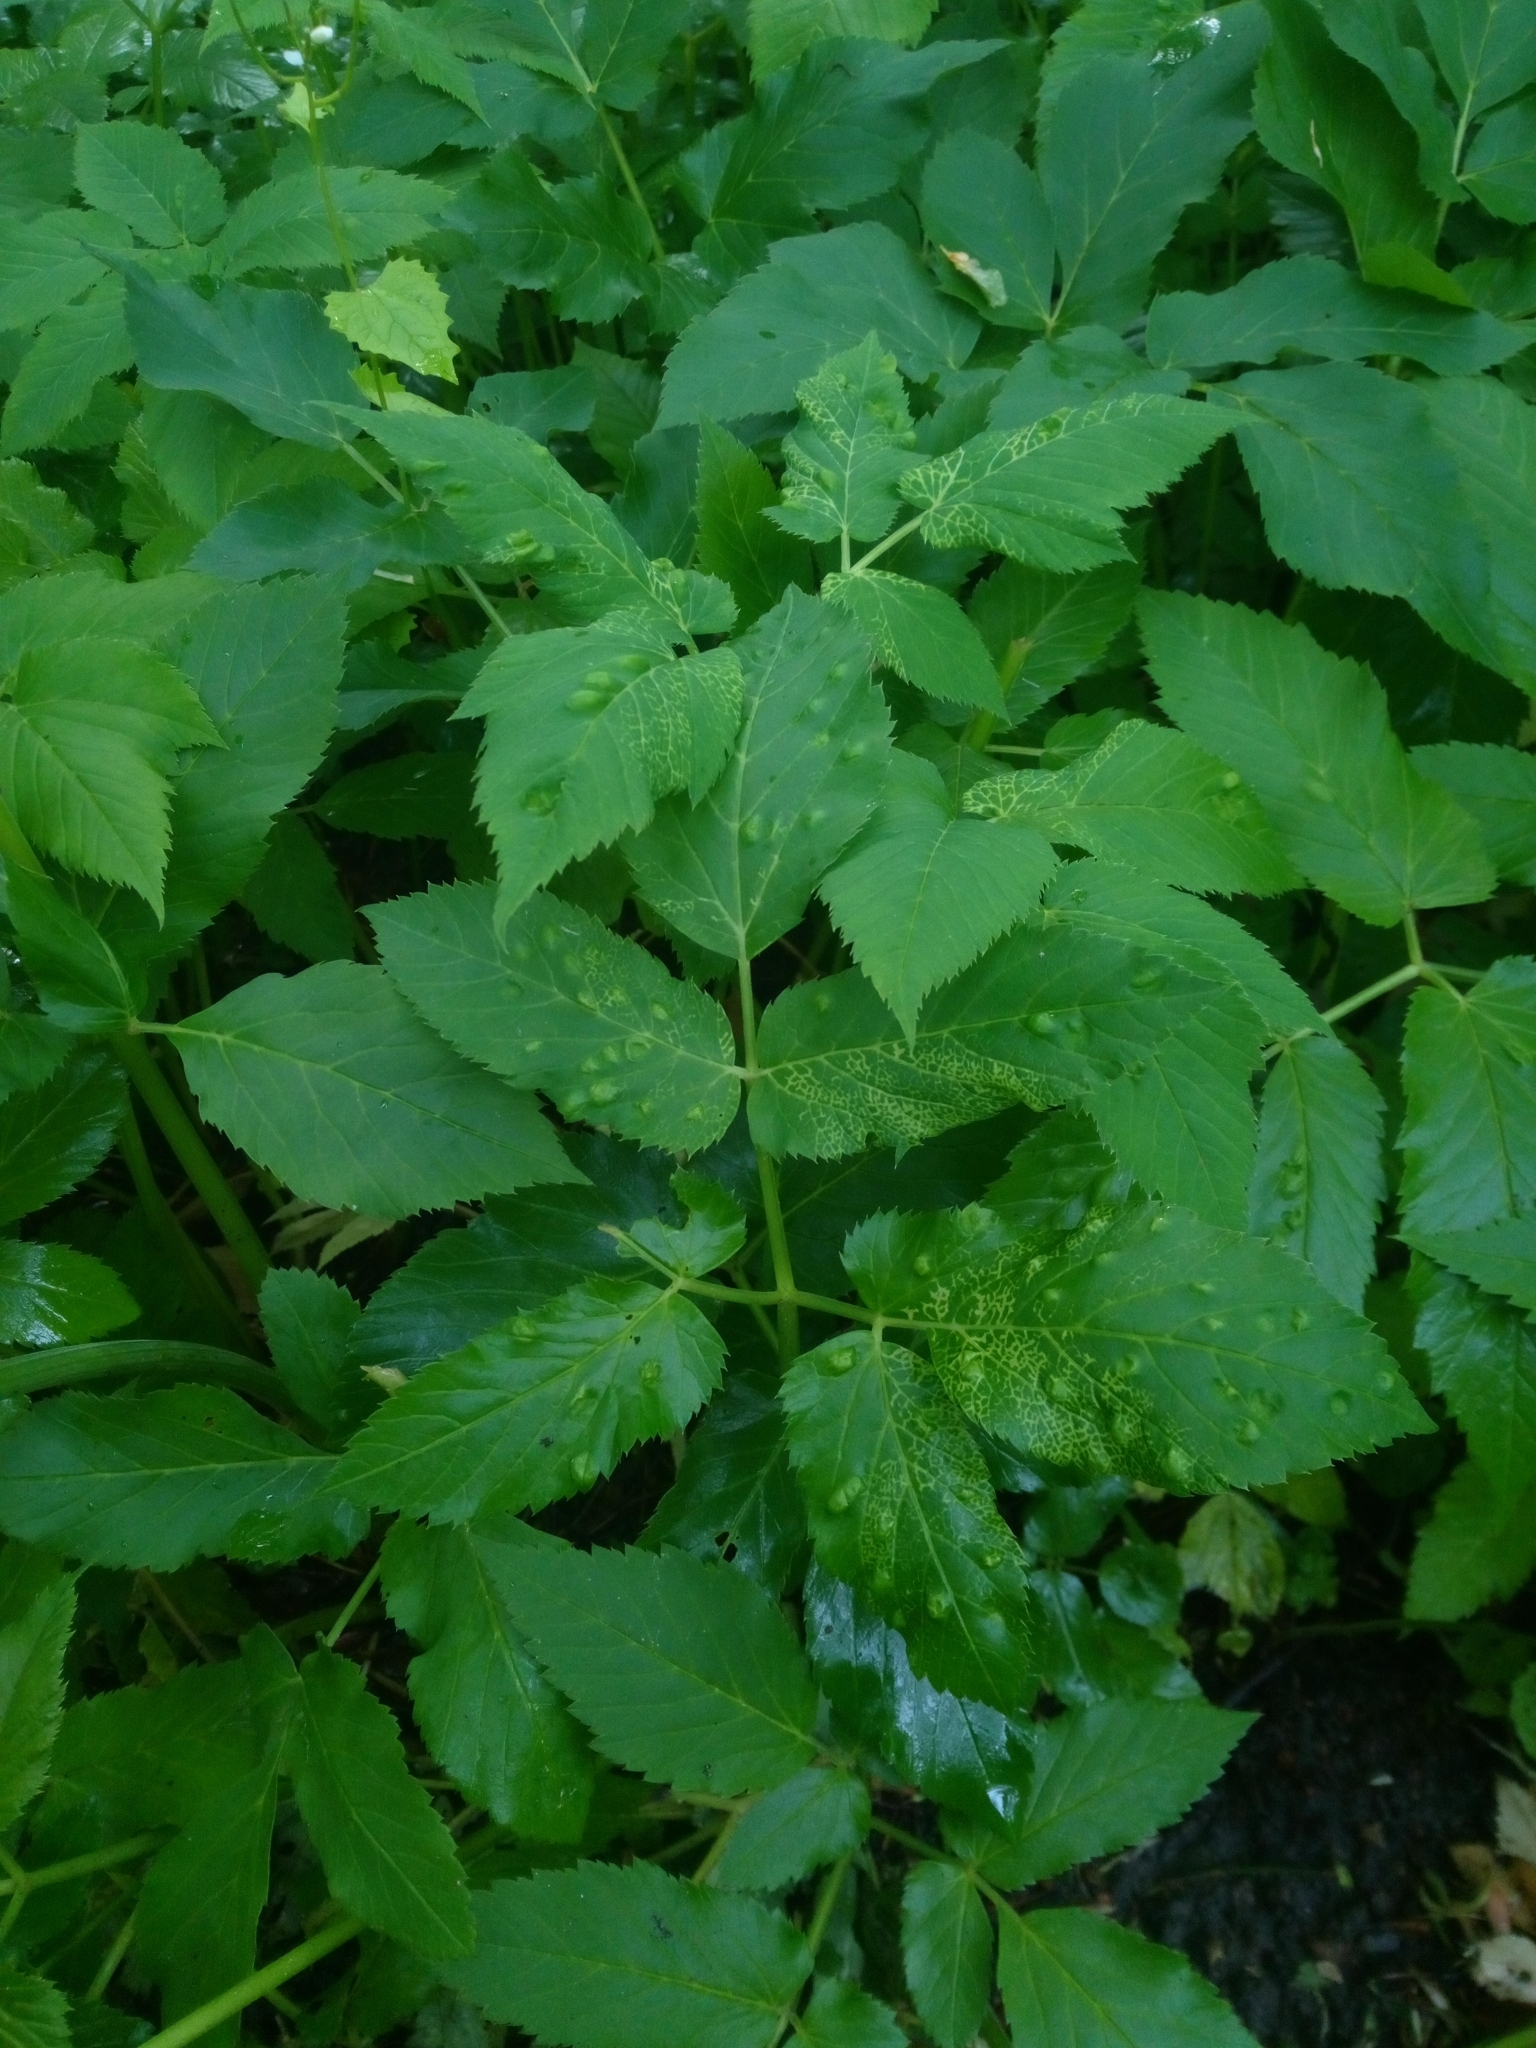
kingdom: Animalia
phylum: Arthropoda
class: Insecta
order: Hemiptera
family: Triozidae
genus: Trioza
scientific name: Trioza flavipennis
